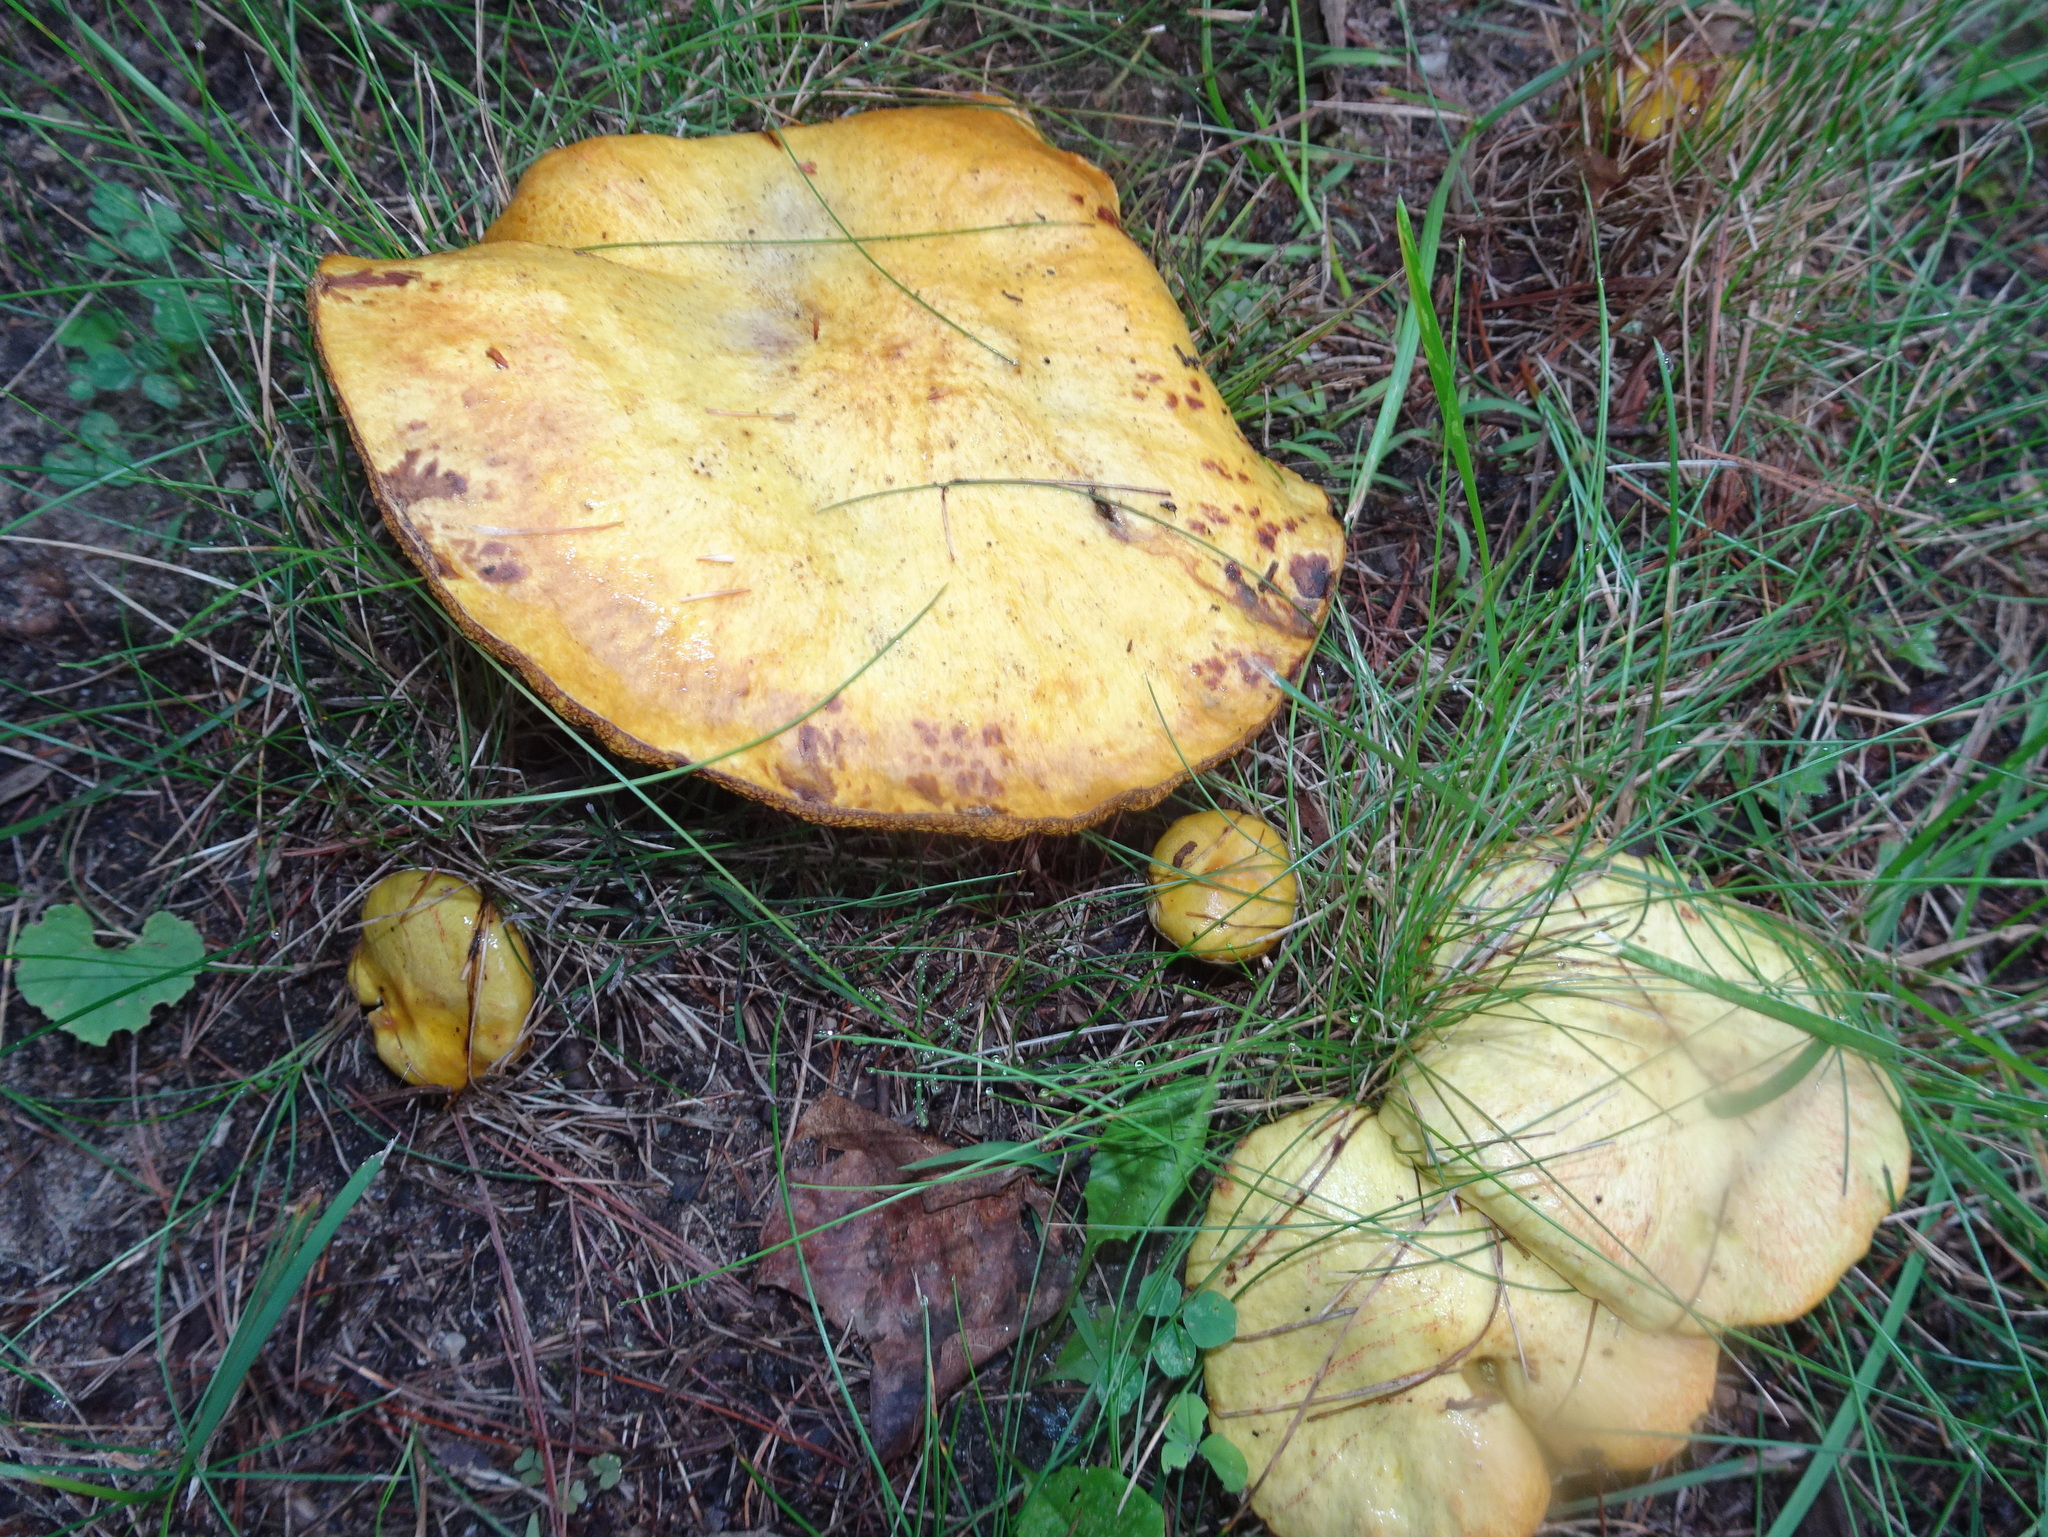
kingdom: Fungi
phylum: Basidiomycota
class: Agaricomycetes
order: Boletales
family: Suillaceae
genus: Suillus
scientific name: Suillus americanus
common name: Chicken fat mushroom
